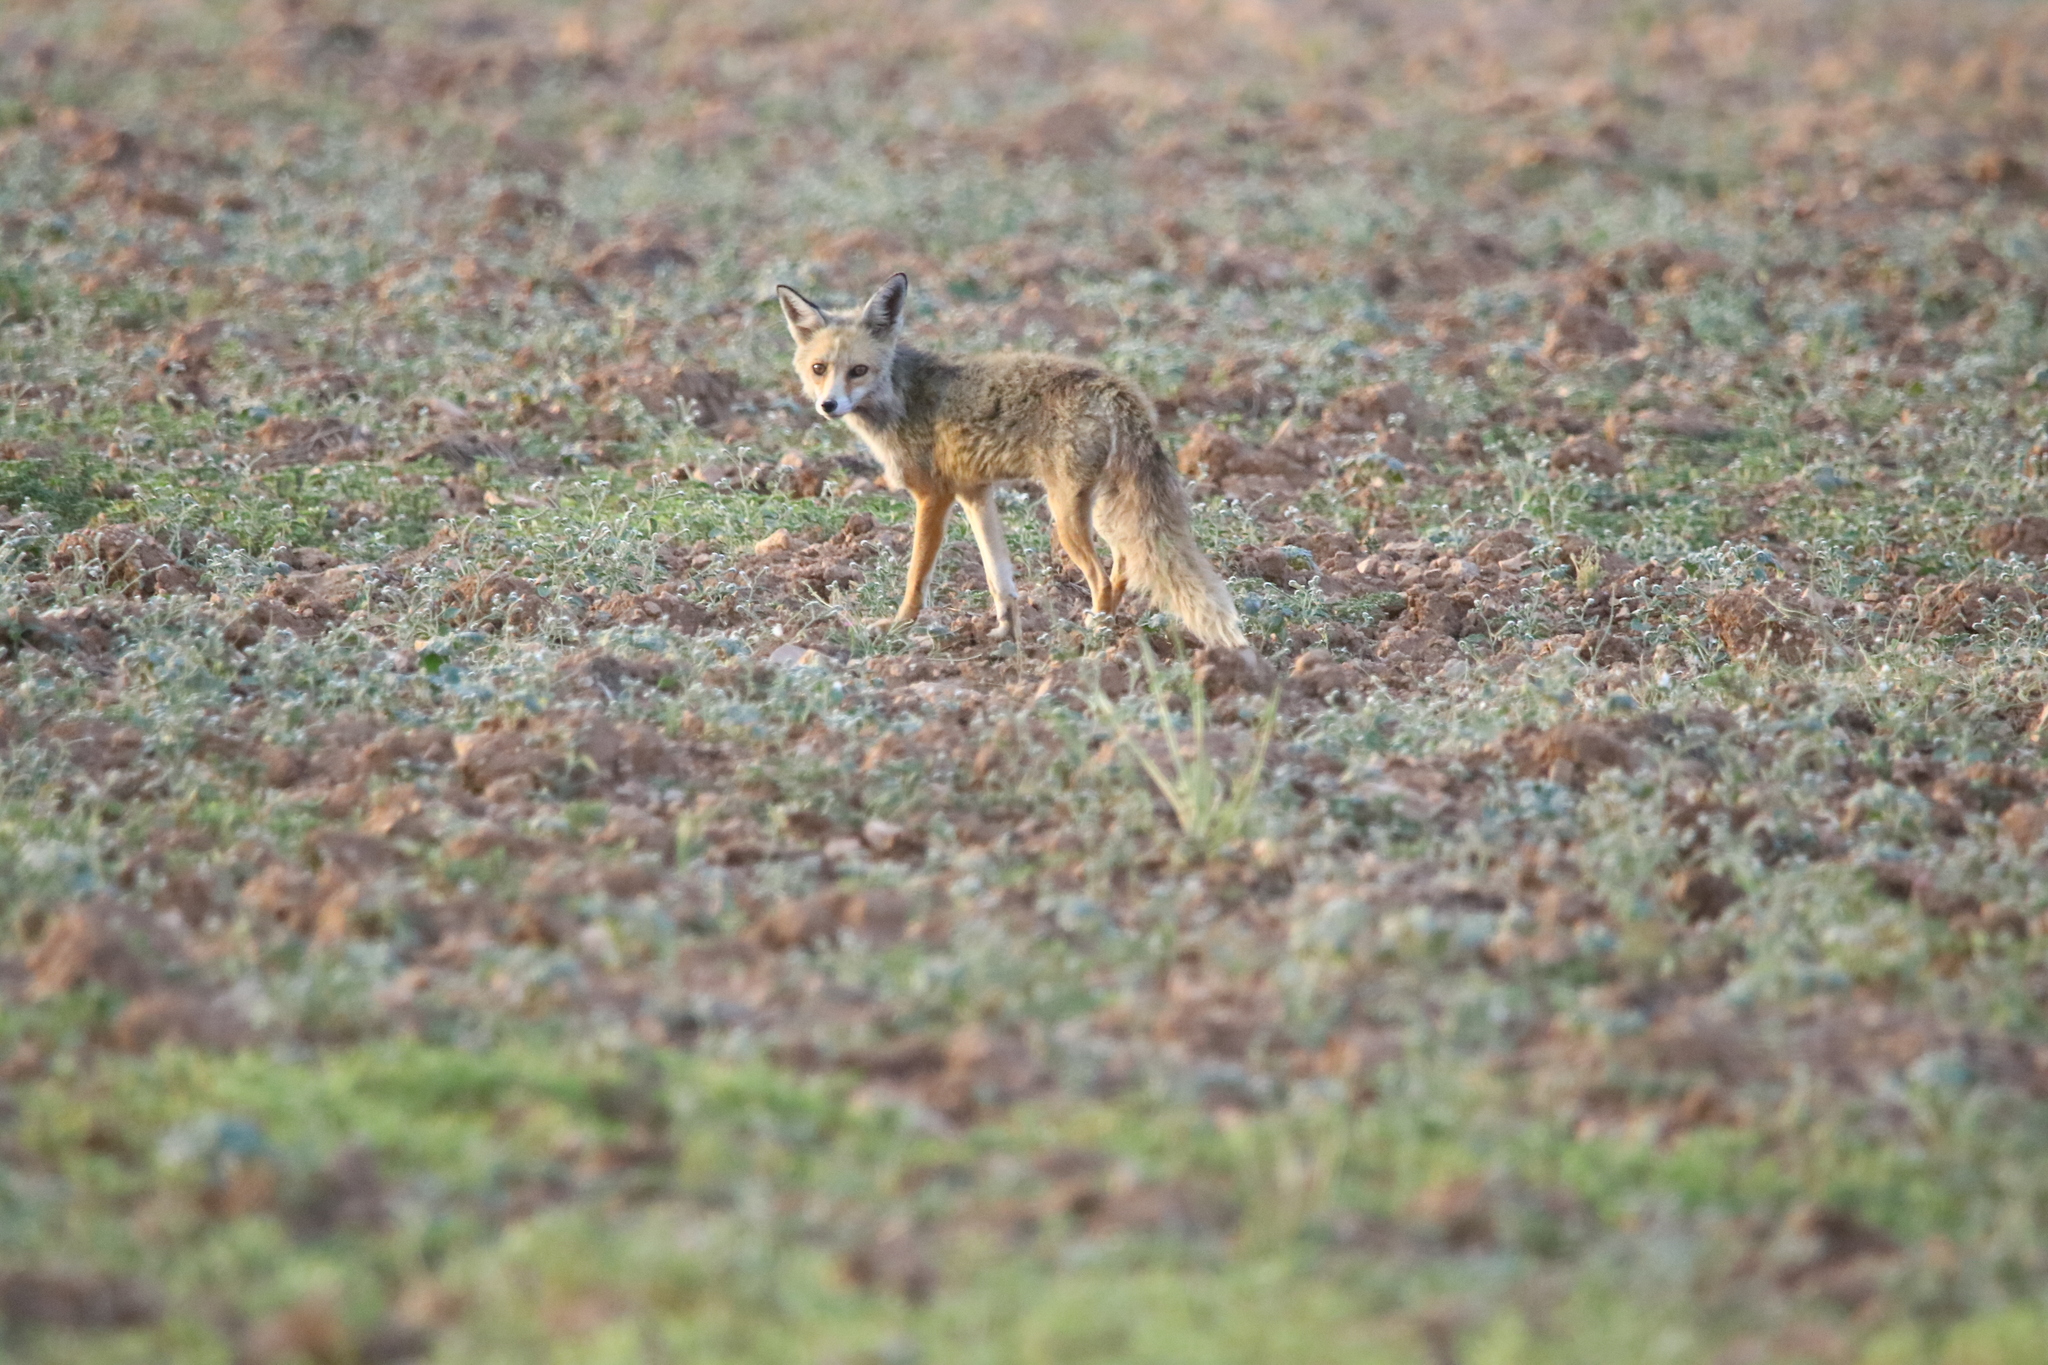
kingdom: Animalia
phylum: Chordata
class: Mammalia
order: Carnivora
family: Canidae
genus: Vulpes
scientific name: Vulpes vulpes
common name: Red fox
